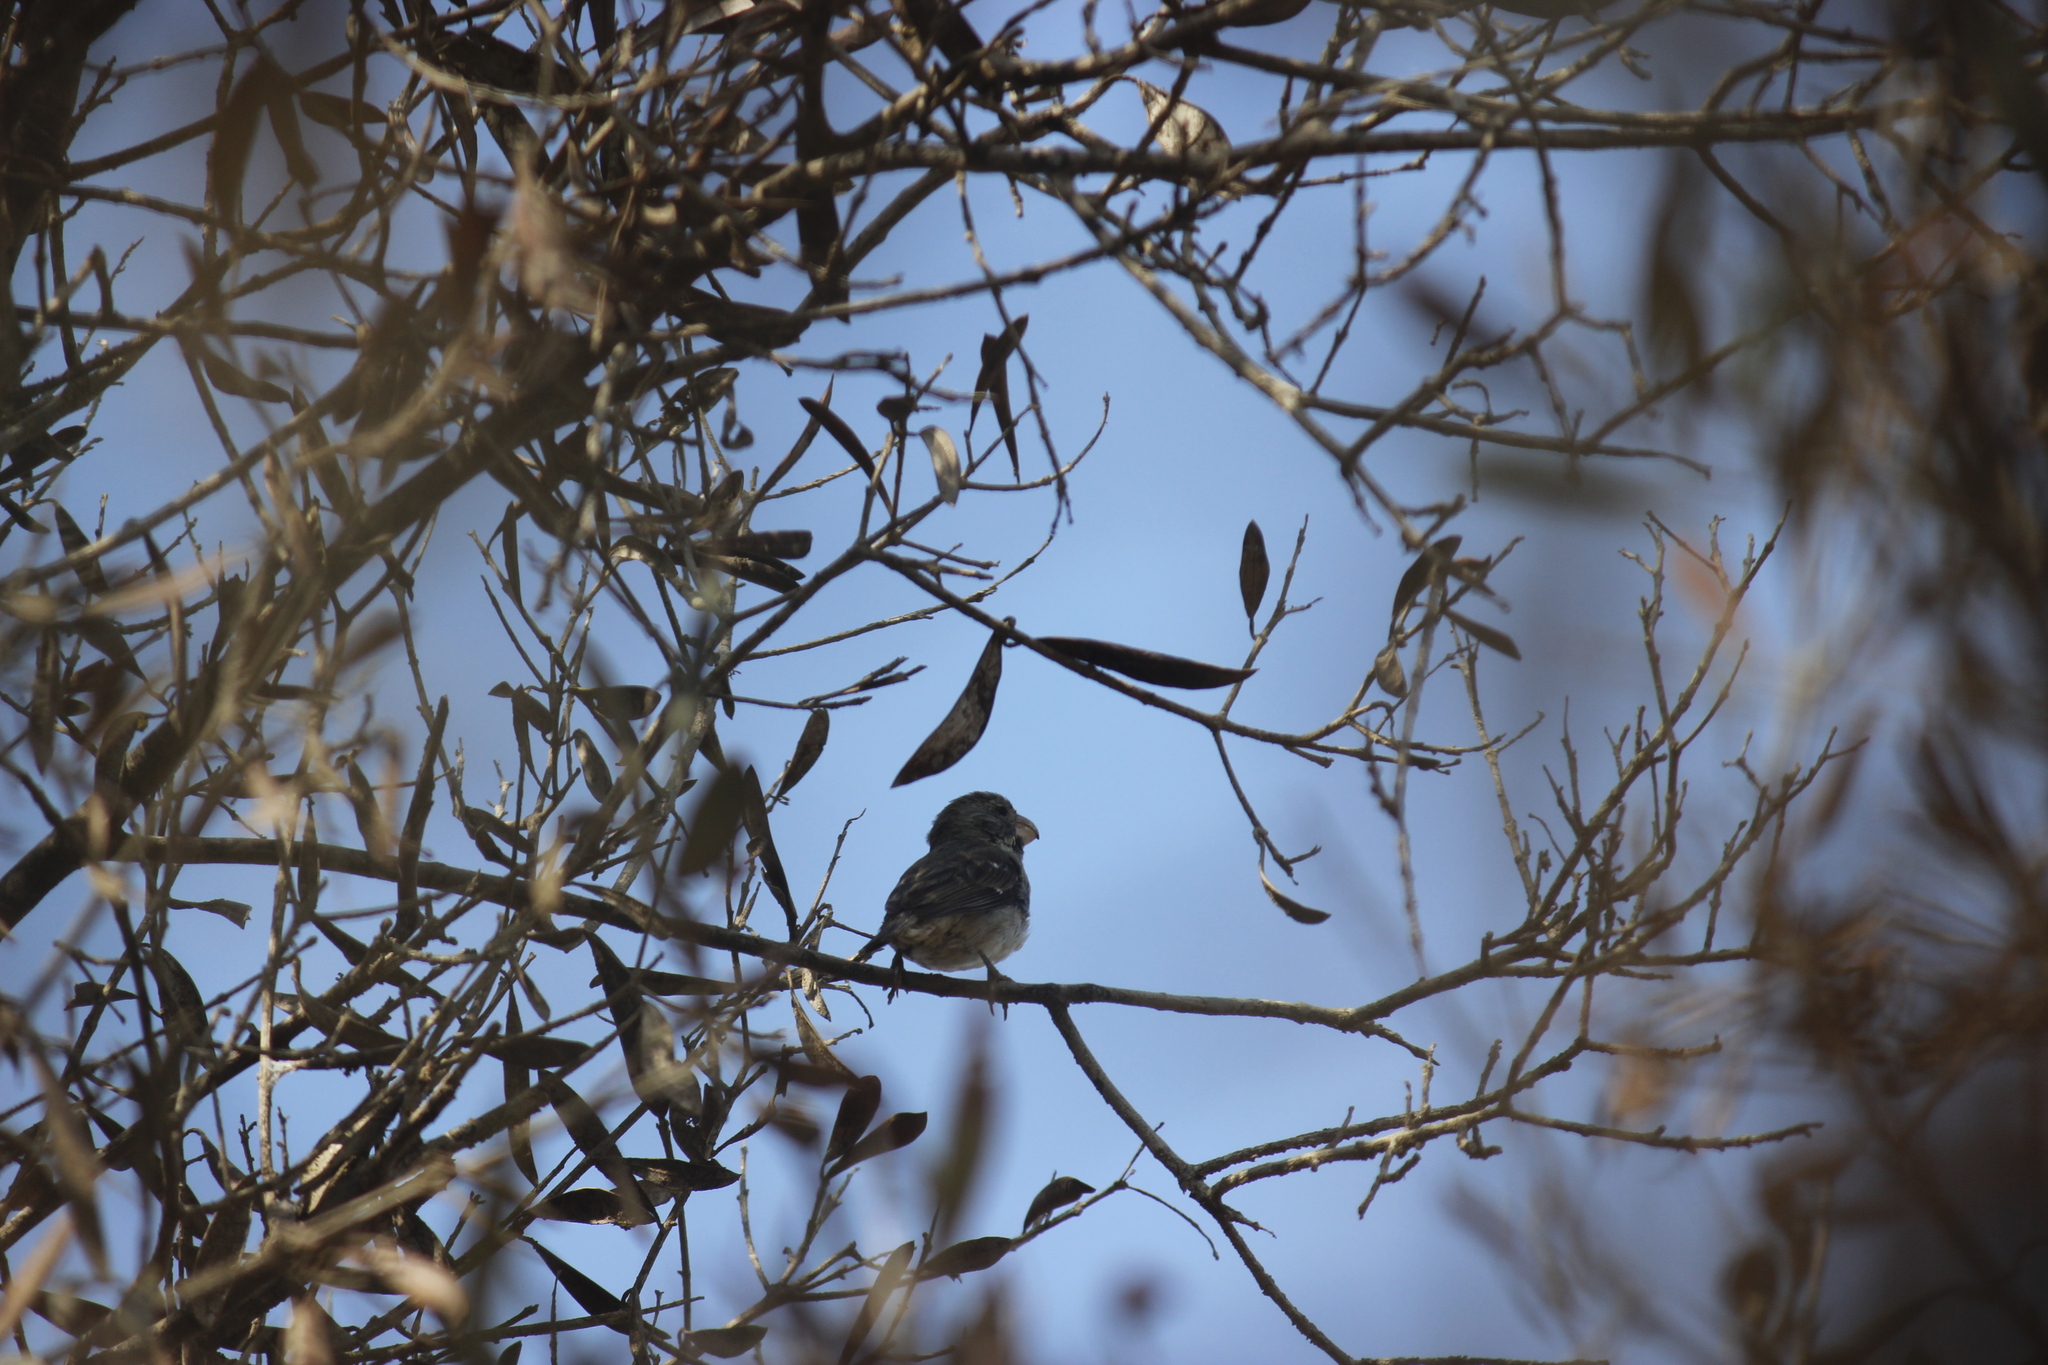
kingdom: Animalia
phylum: Chordata
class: Aves
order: Passeriformes
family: Thraupidae
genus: Sporophila
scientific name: Sporophila peruviana
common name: Parrot-billed seedeater
